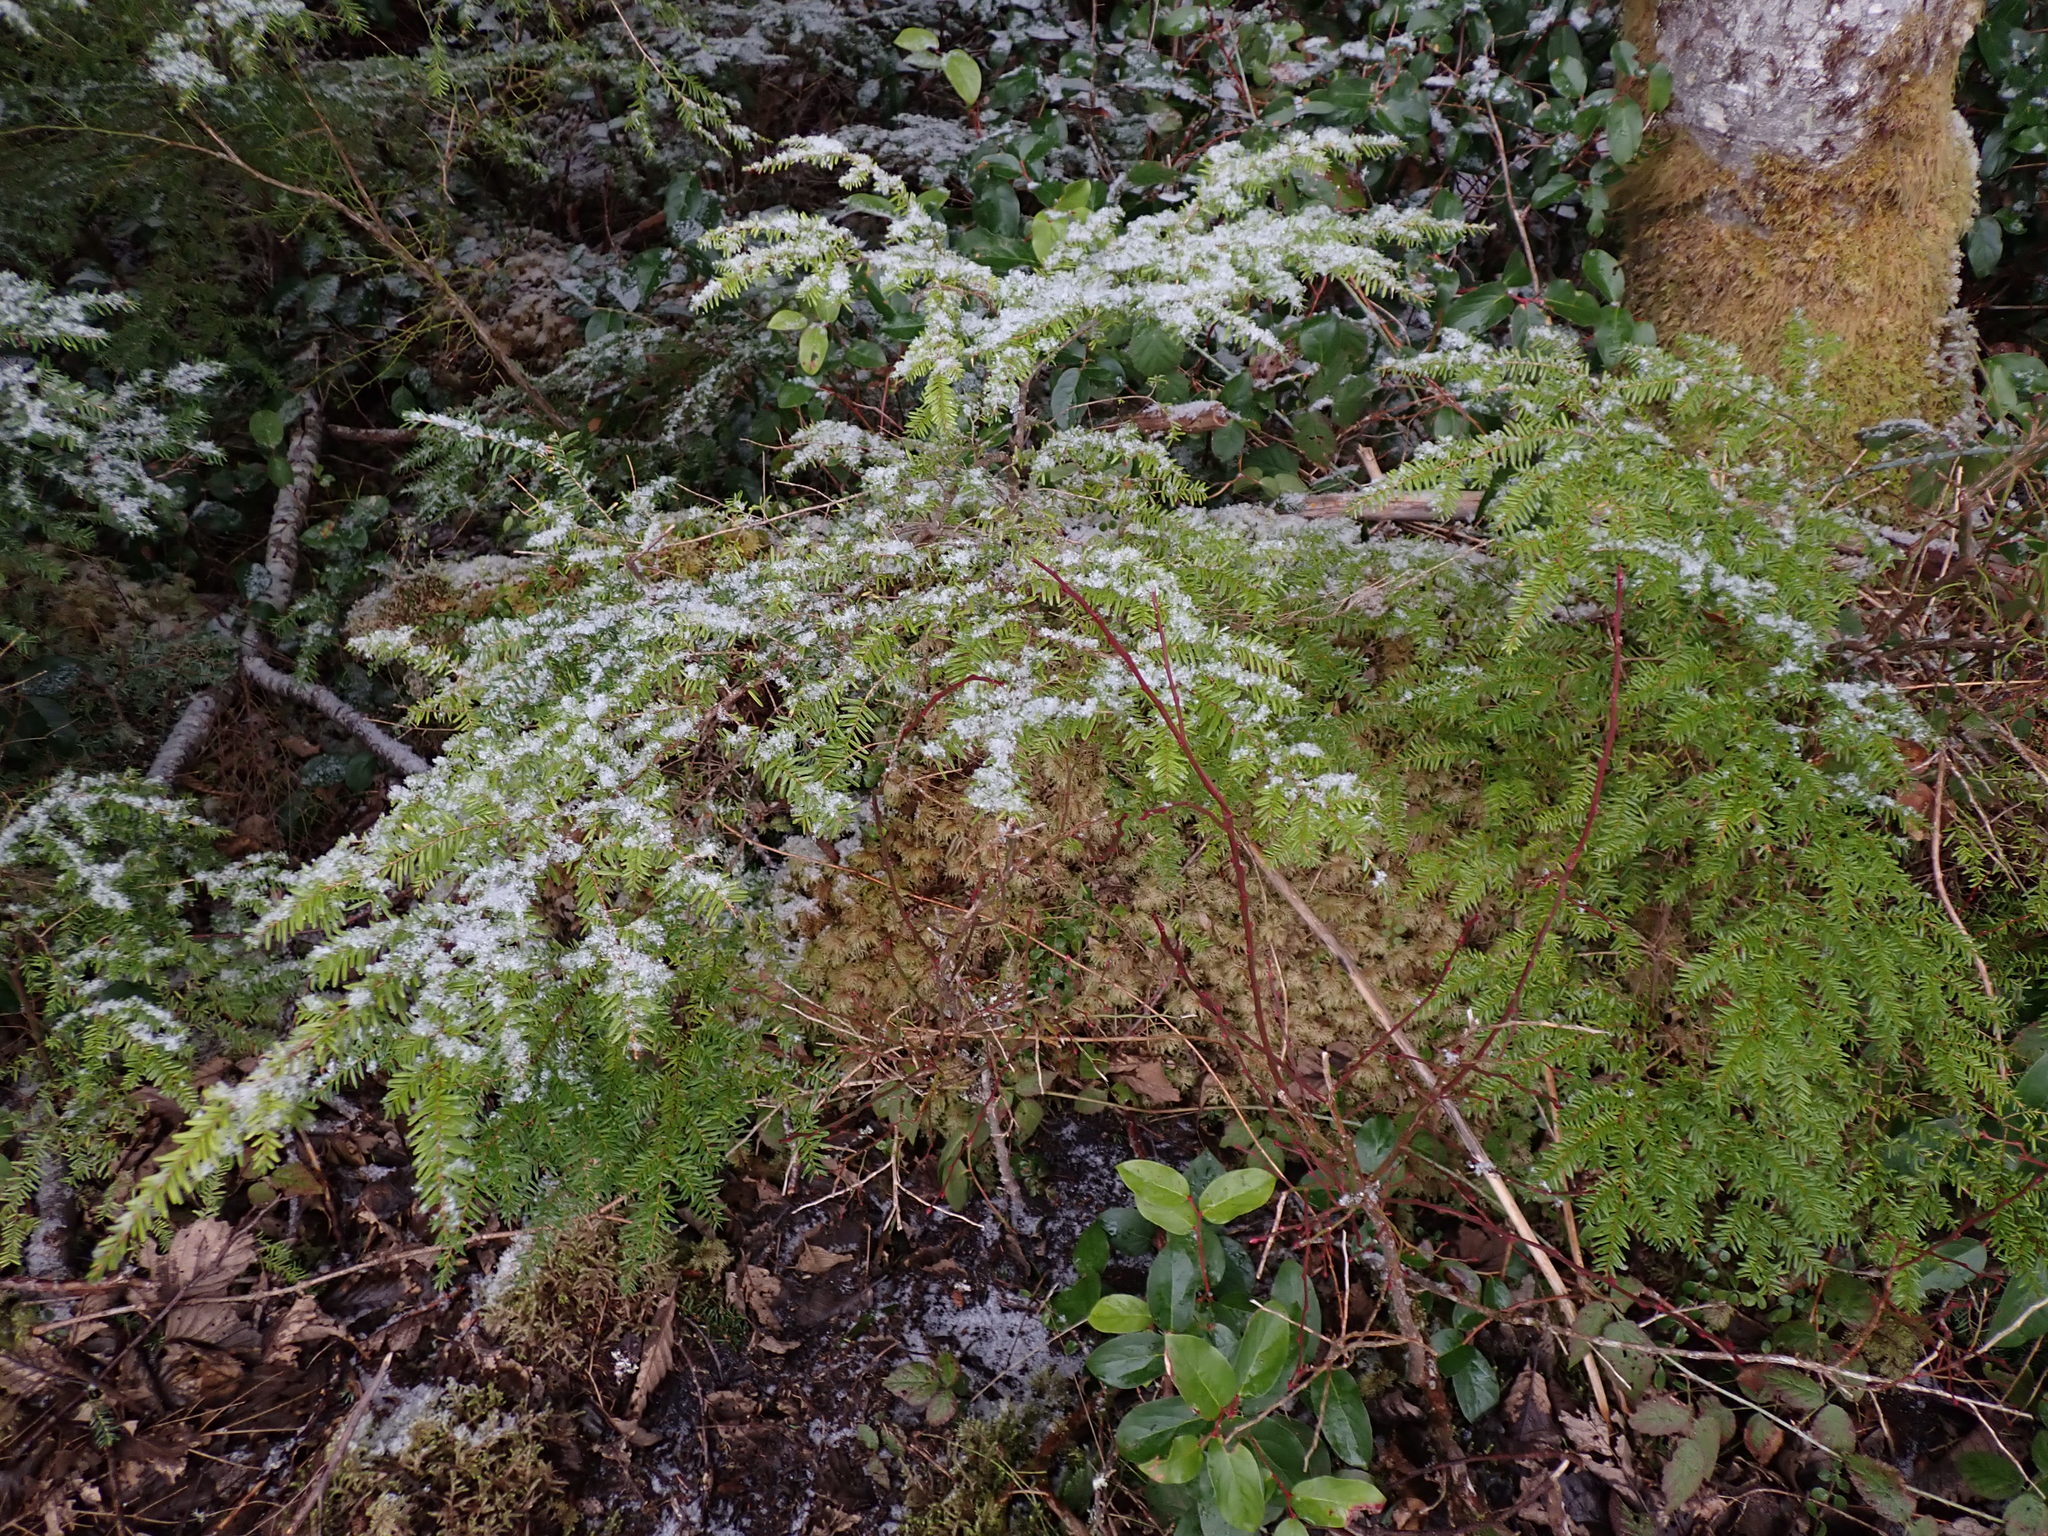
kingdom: Plantae
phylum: Tracheophyta
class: Pinopsida
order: Pinales
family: Pinaceae
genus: Tsuga
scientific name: Tsuga heterophylla
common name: Western hemlock
